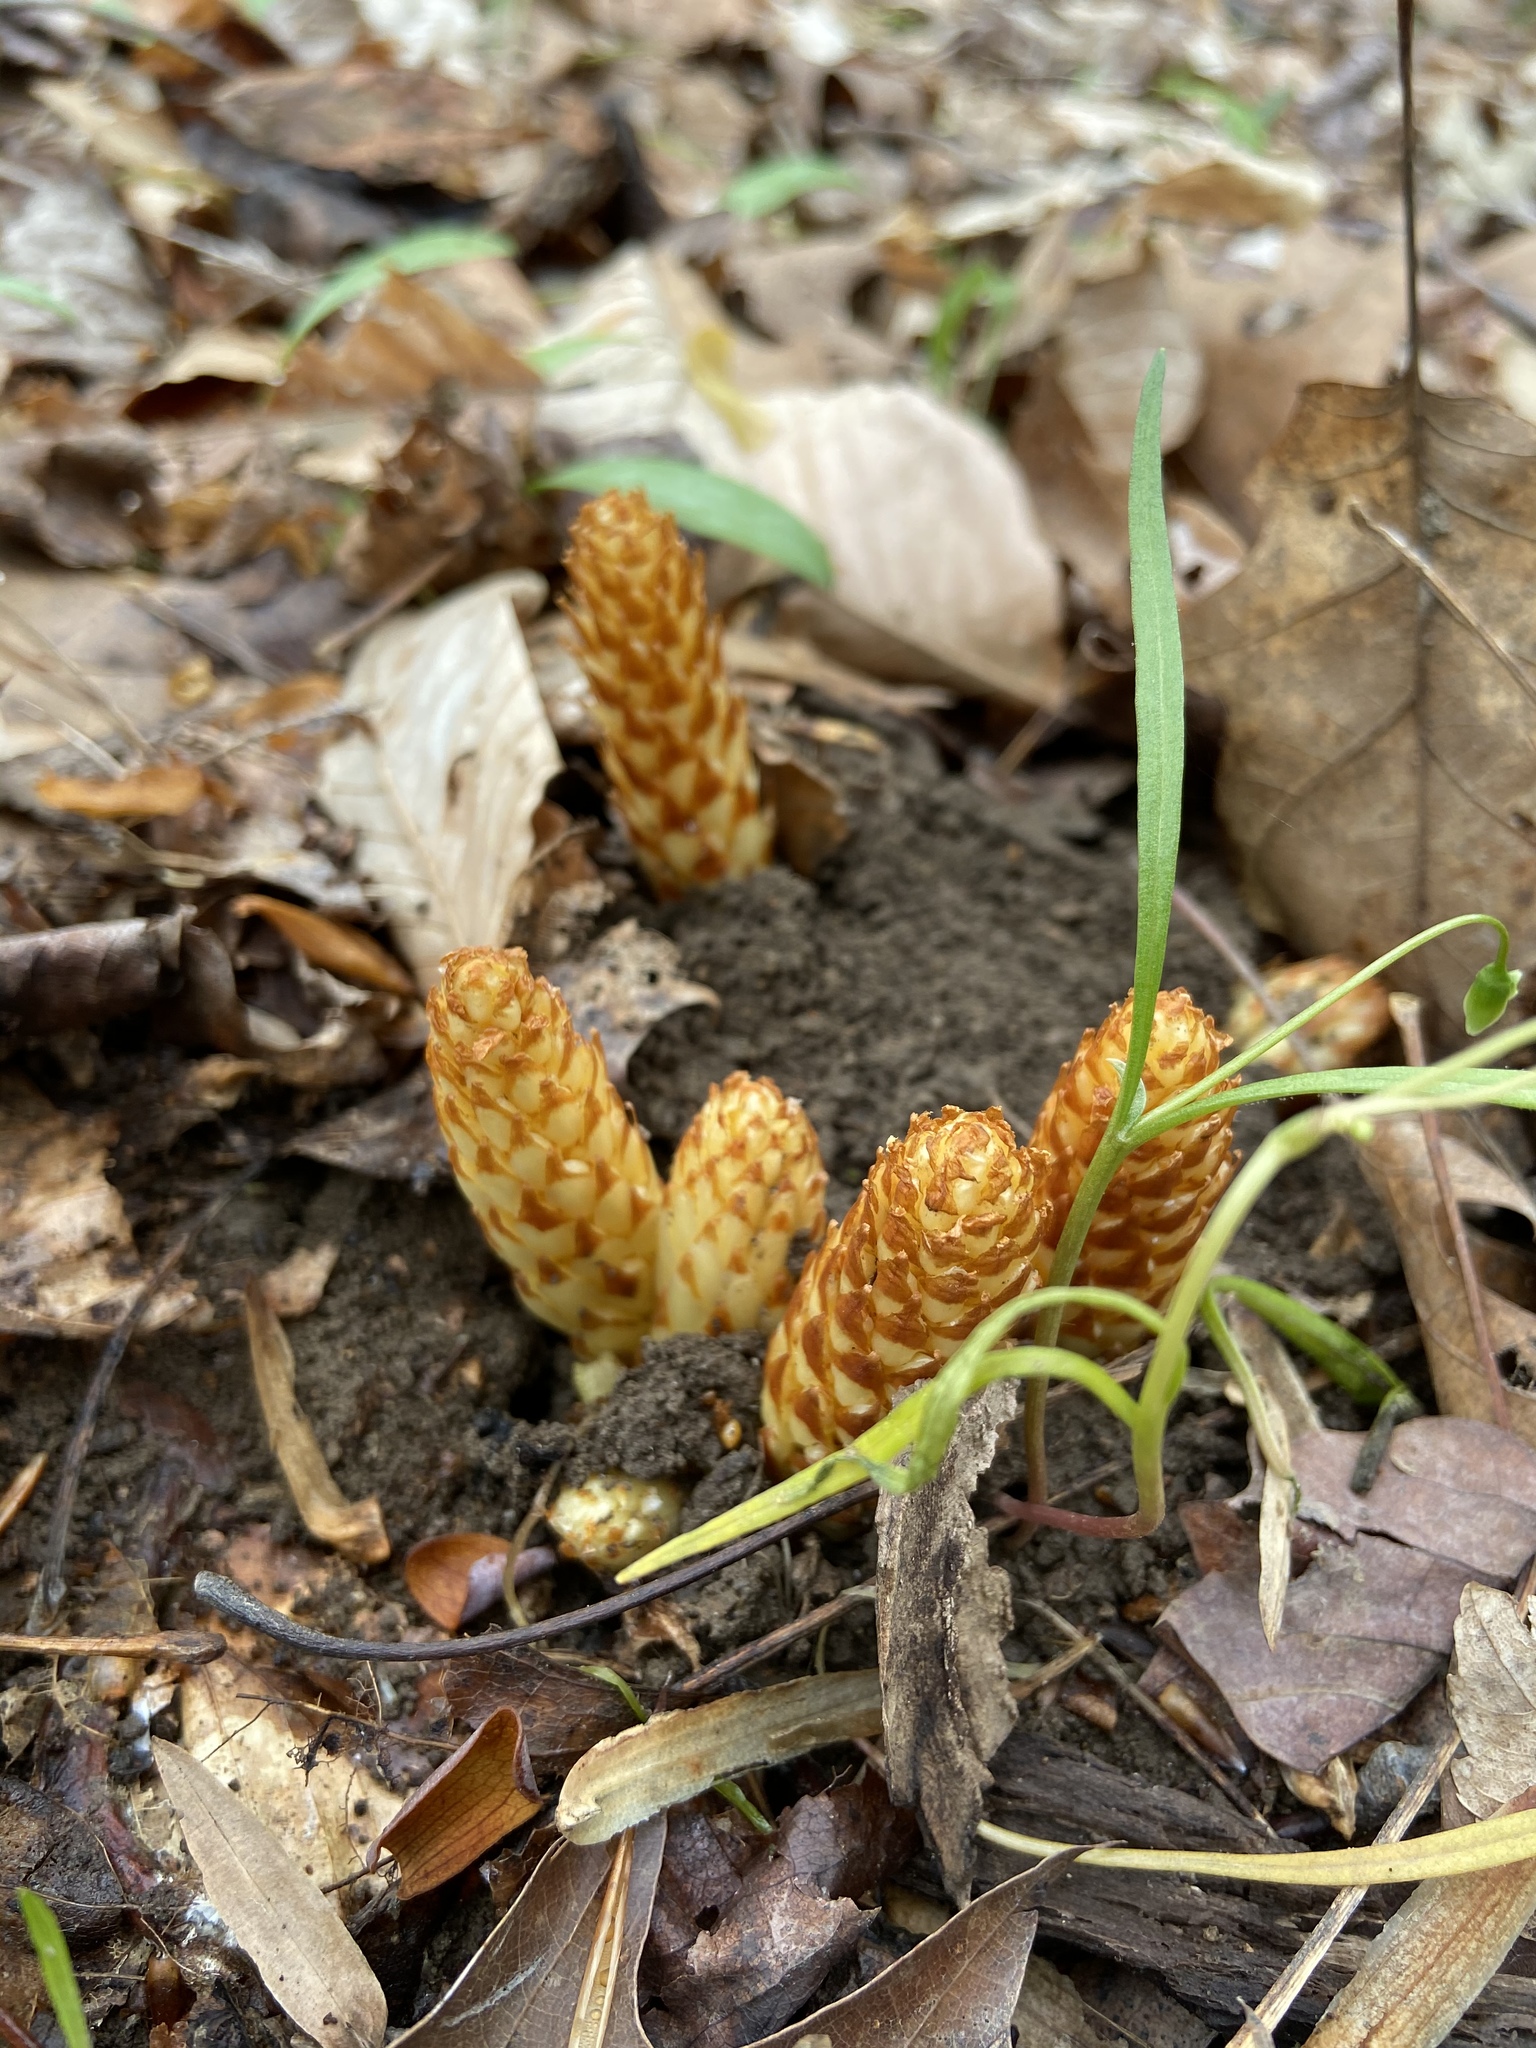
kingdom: Plantae
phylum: Tracheophyta
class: Magnoliopsida
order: Lamiales
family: Orobanchaceae
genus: Conopholis
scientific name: Conopholis americana
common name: American cancer-root
